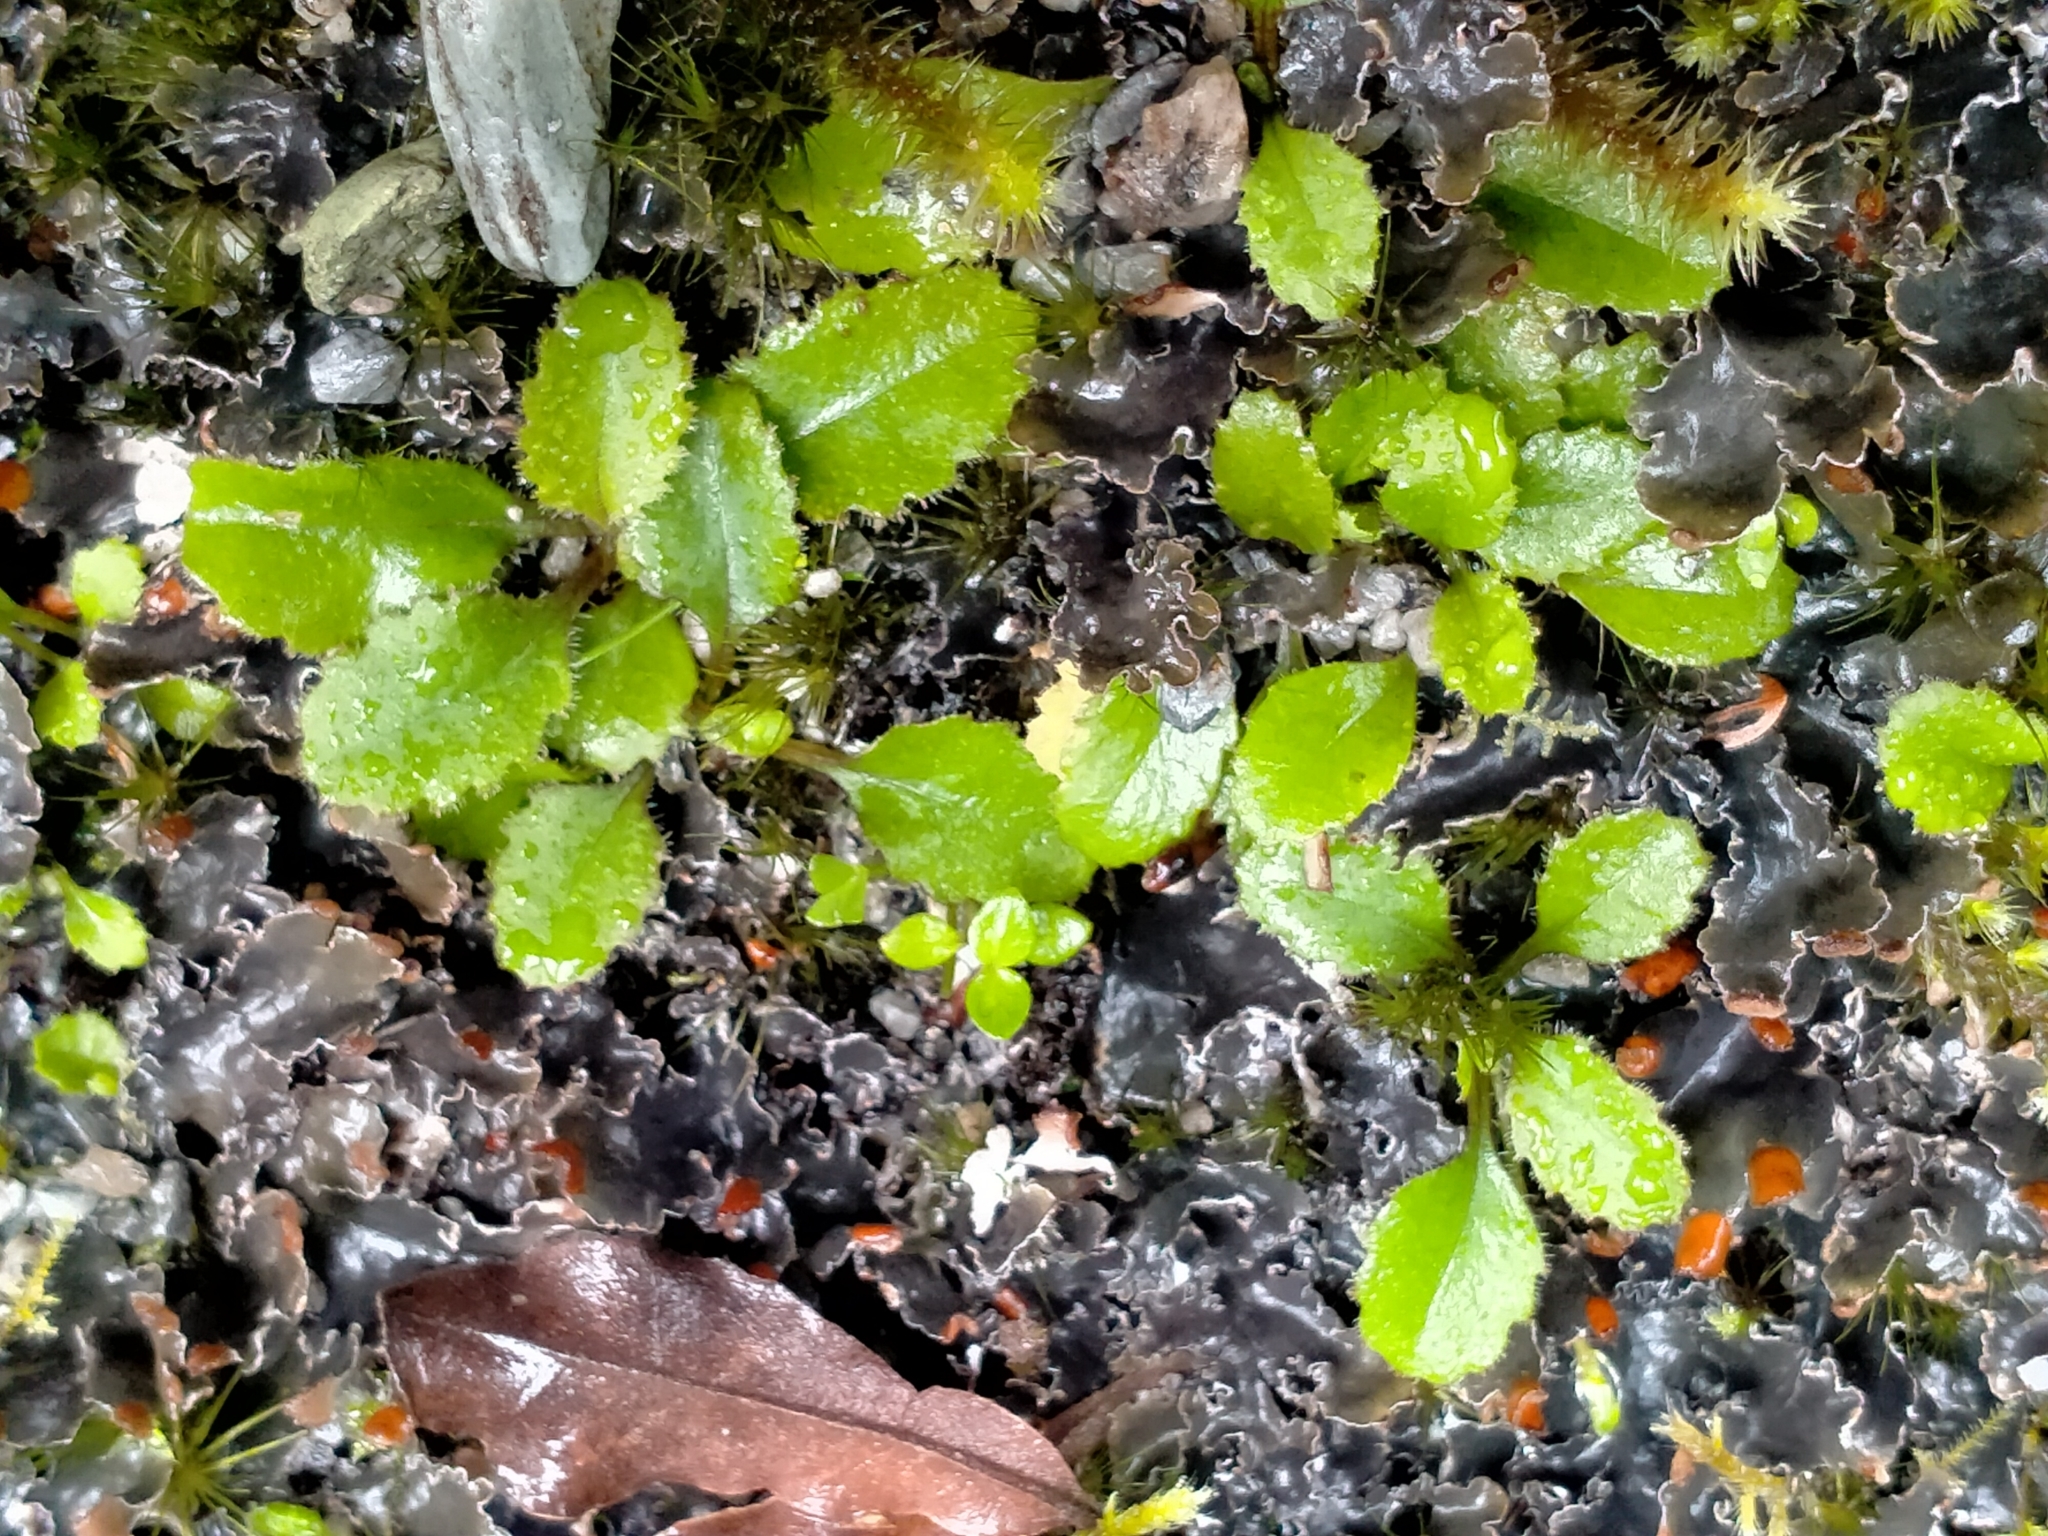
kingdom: Plantae
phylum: Tracheophyta
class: Magnoliopsida
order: Asterales
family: Asteraceae
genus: Lagenophora
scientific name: Lagenophora pumila
